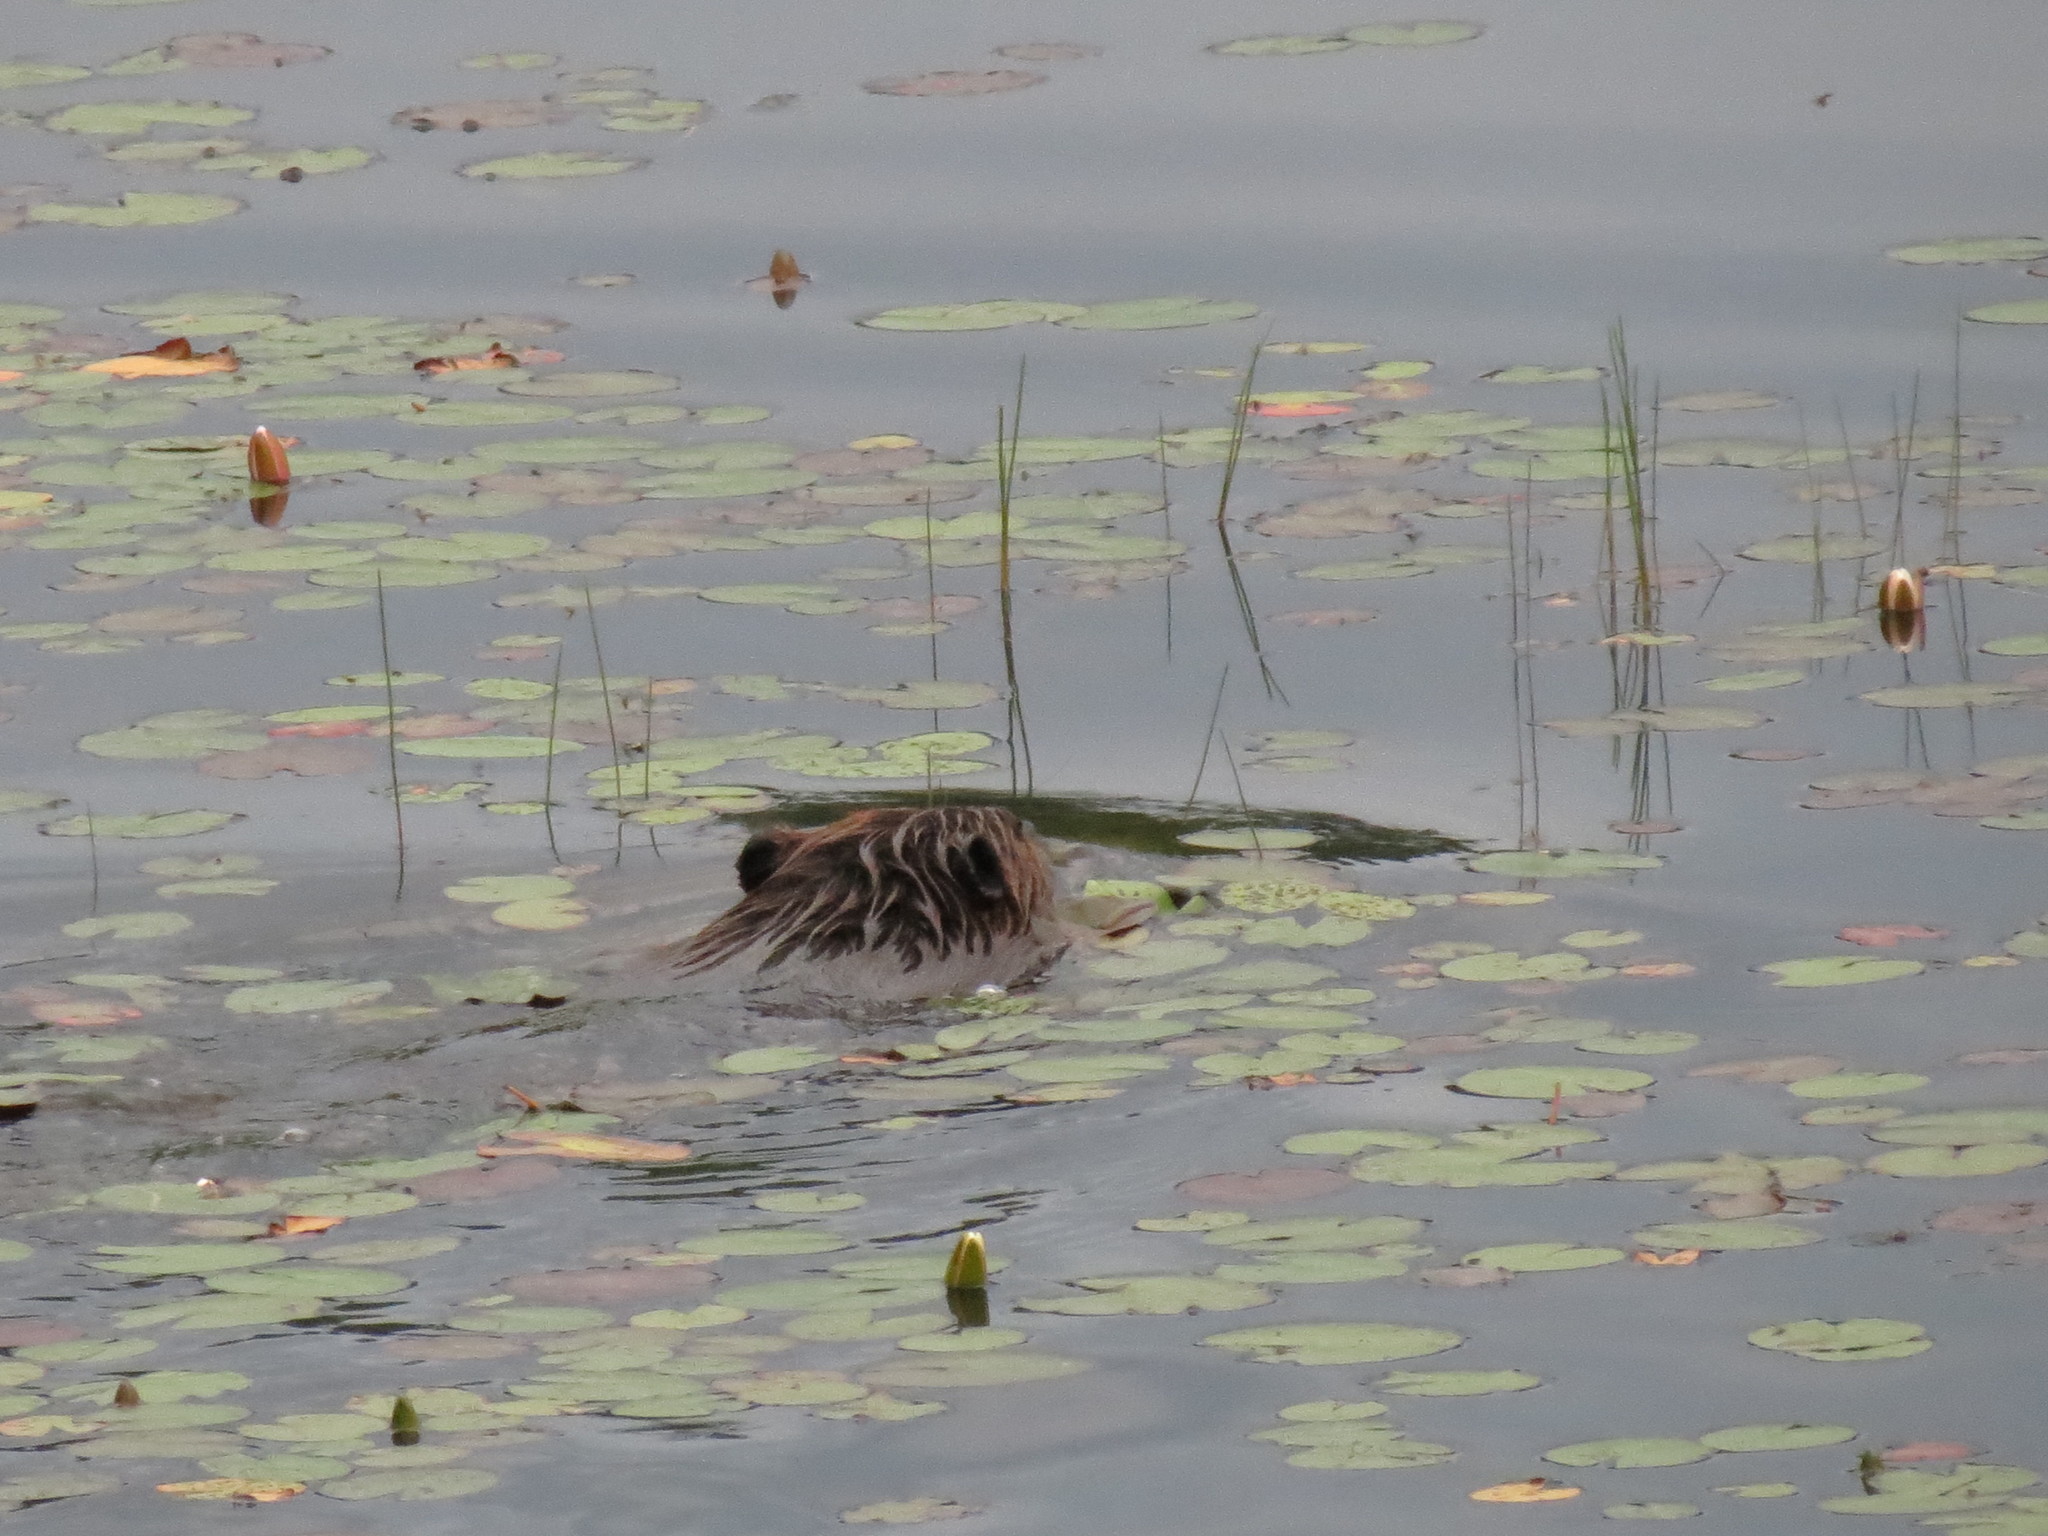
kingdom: Animalia
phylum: Chordata
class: Mammalia
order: Rodentia
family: Castoridae
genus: Castor
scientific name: Castor canadensis
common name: American beaver
